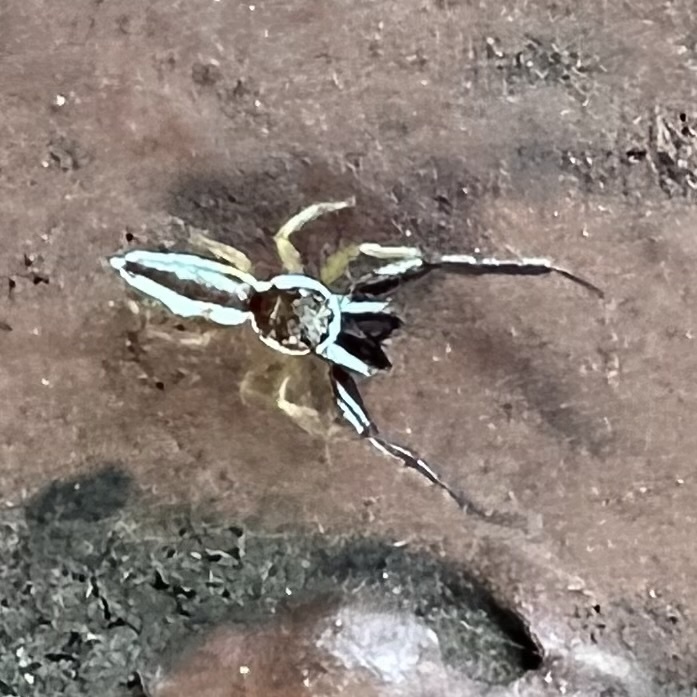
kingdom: Animalia
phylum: Arthropoda
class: Arachnida
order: Araneae
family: Salticidae
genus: Hentzia
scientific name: Hentzia palmarum
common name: Common hentz jumping spider
